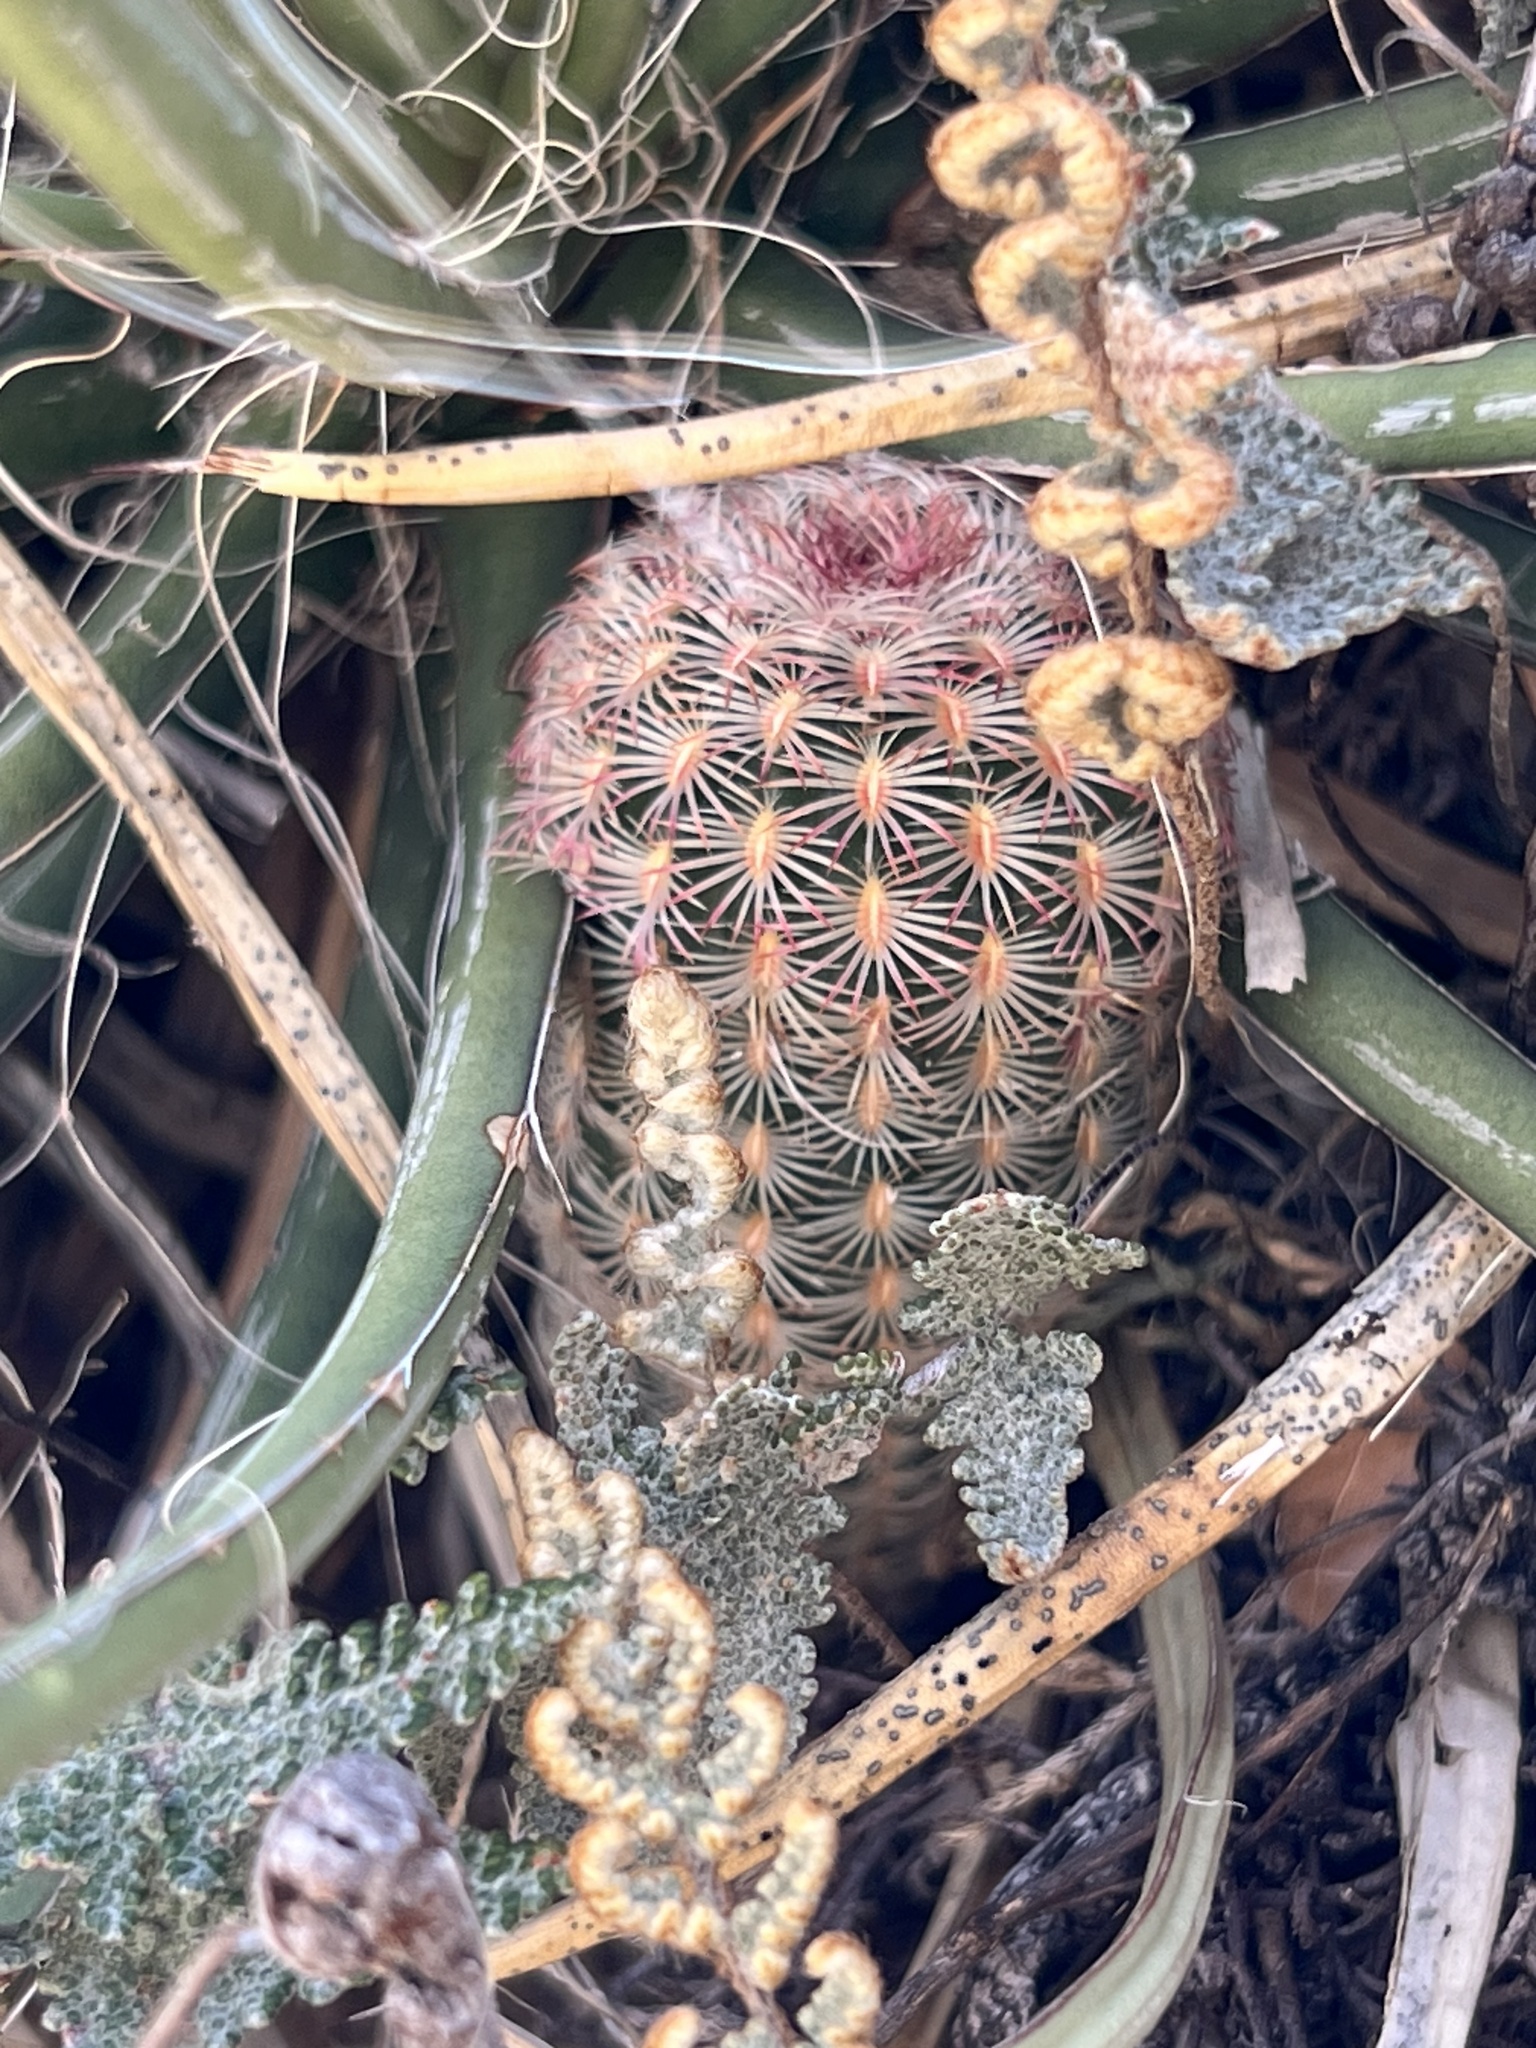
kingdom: Plantae
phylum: Tracheophyta
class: Magnoliopsida
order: Caryophyllales
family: Cactaceae
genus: Echinocereus
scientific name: Echinocereus rigidissimus
